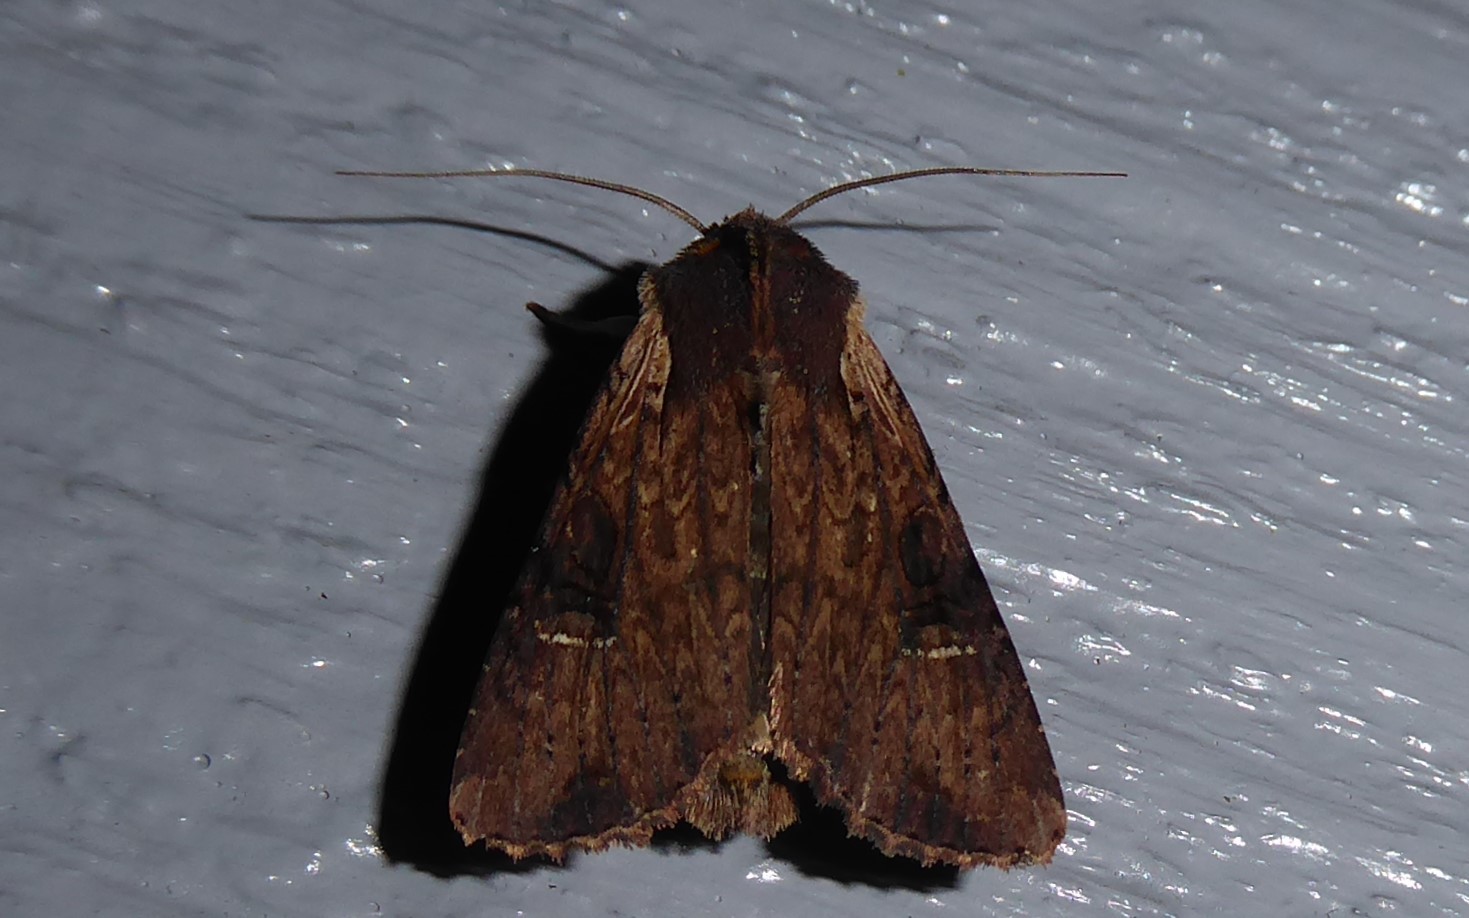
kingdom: Animalia
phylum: Arthropoda
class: Insecta
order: Lepidoptera
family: Noctuidae
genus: Ichneutica
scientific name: Ichneutica omoplaca
